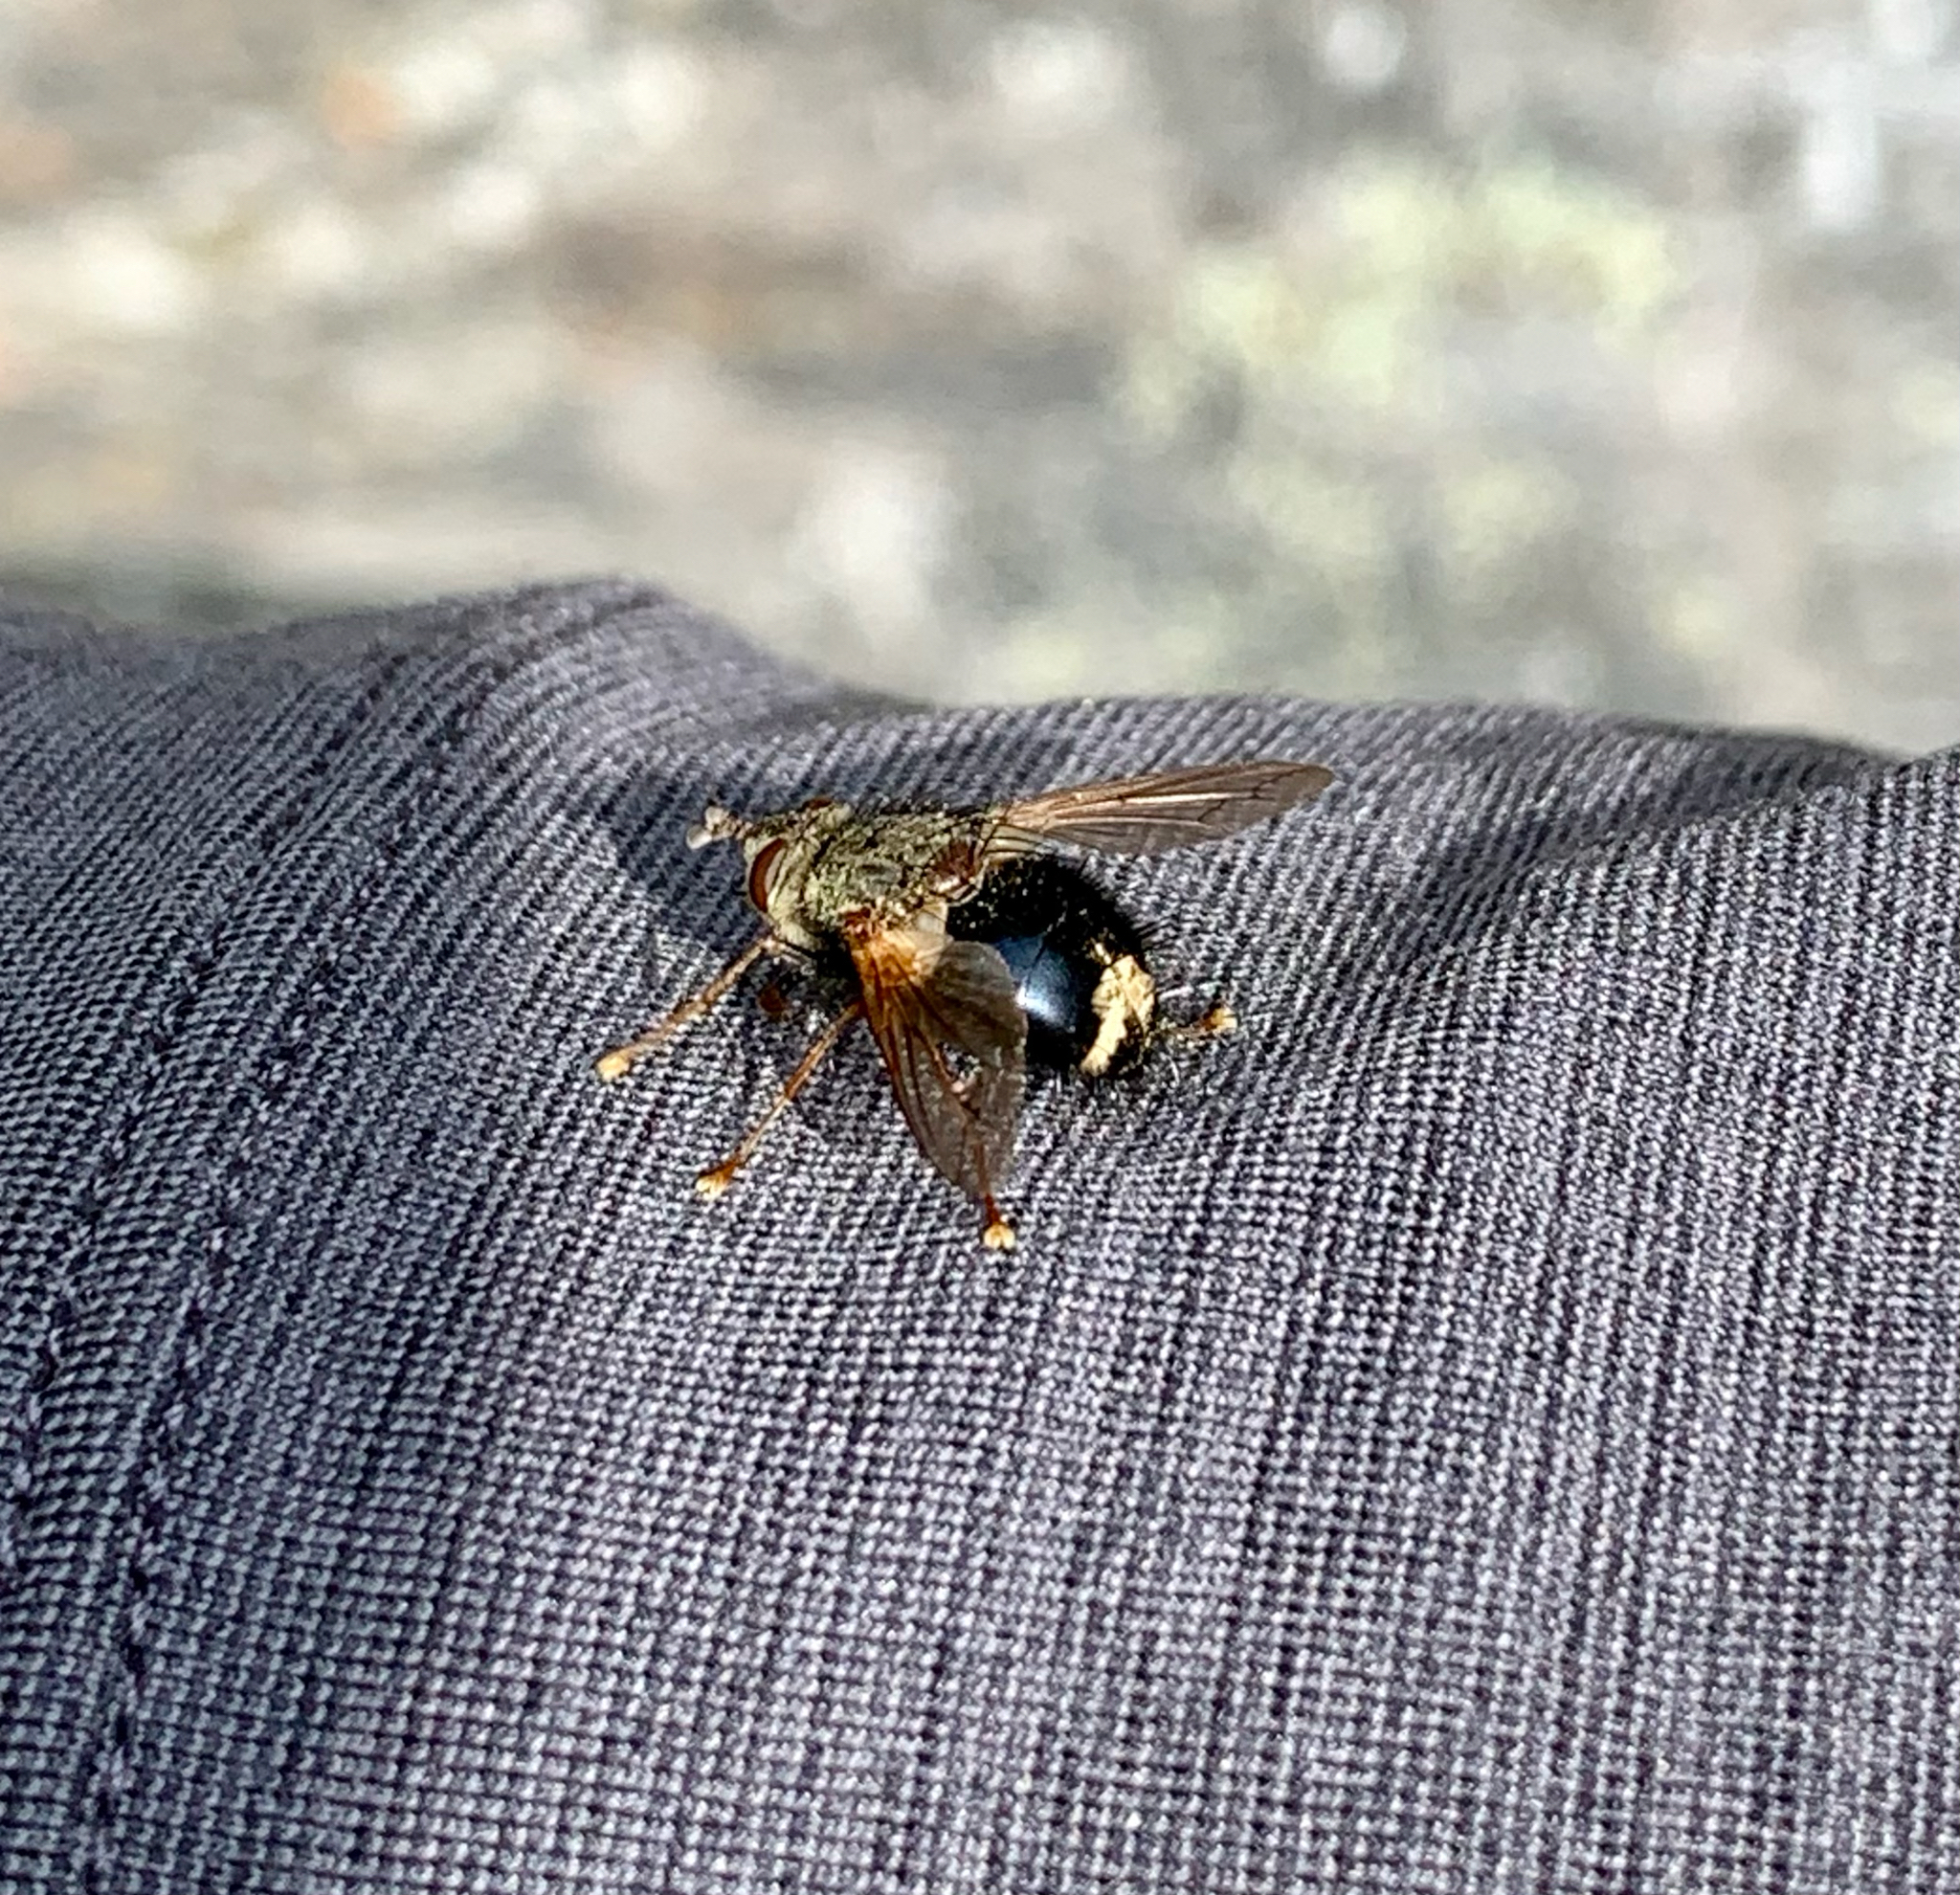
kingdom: Animalia
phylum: Arthropoda
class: Insecta
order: Diptera
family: Tachinidae
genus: Epalpus
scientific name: Epalpus signifer
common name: Early tachinid fly
